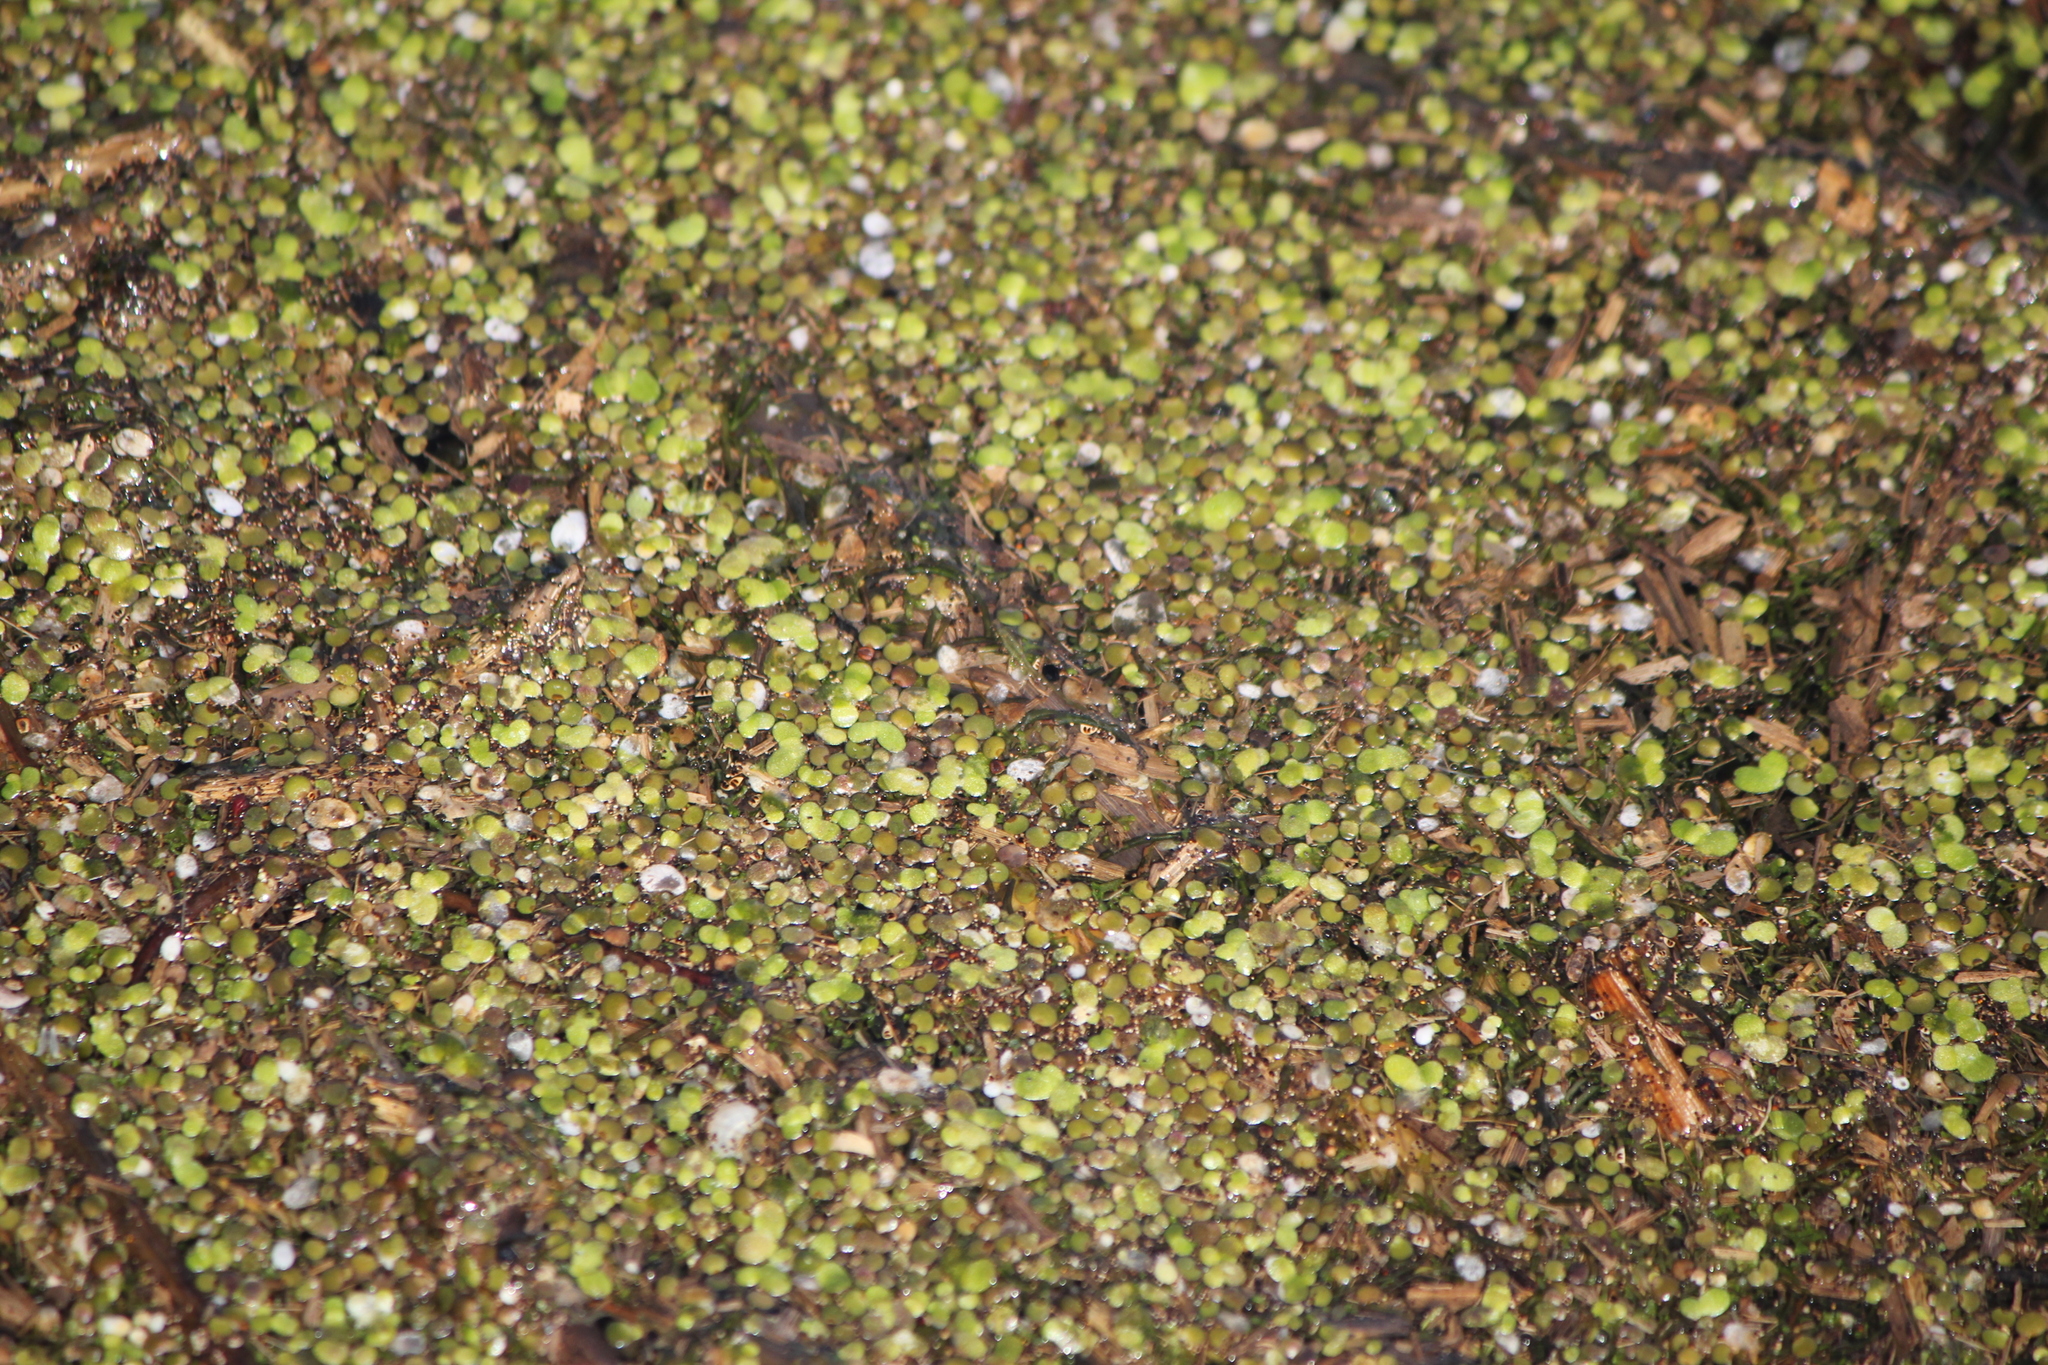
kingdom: Plantae
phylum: Tracheophyta
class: Liliopsida
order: Alismatales
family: Araceae
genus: Lemna
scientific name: Lemna minor
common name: Common duckweed
